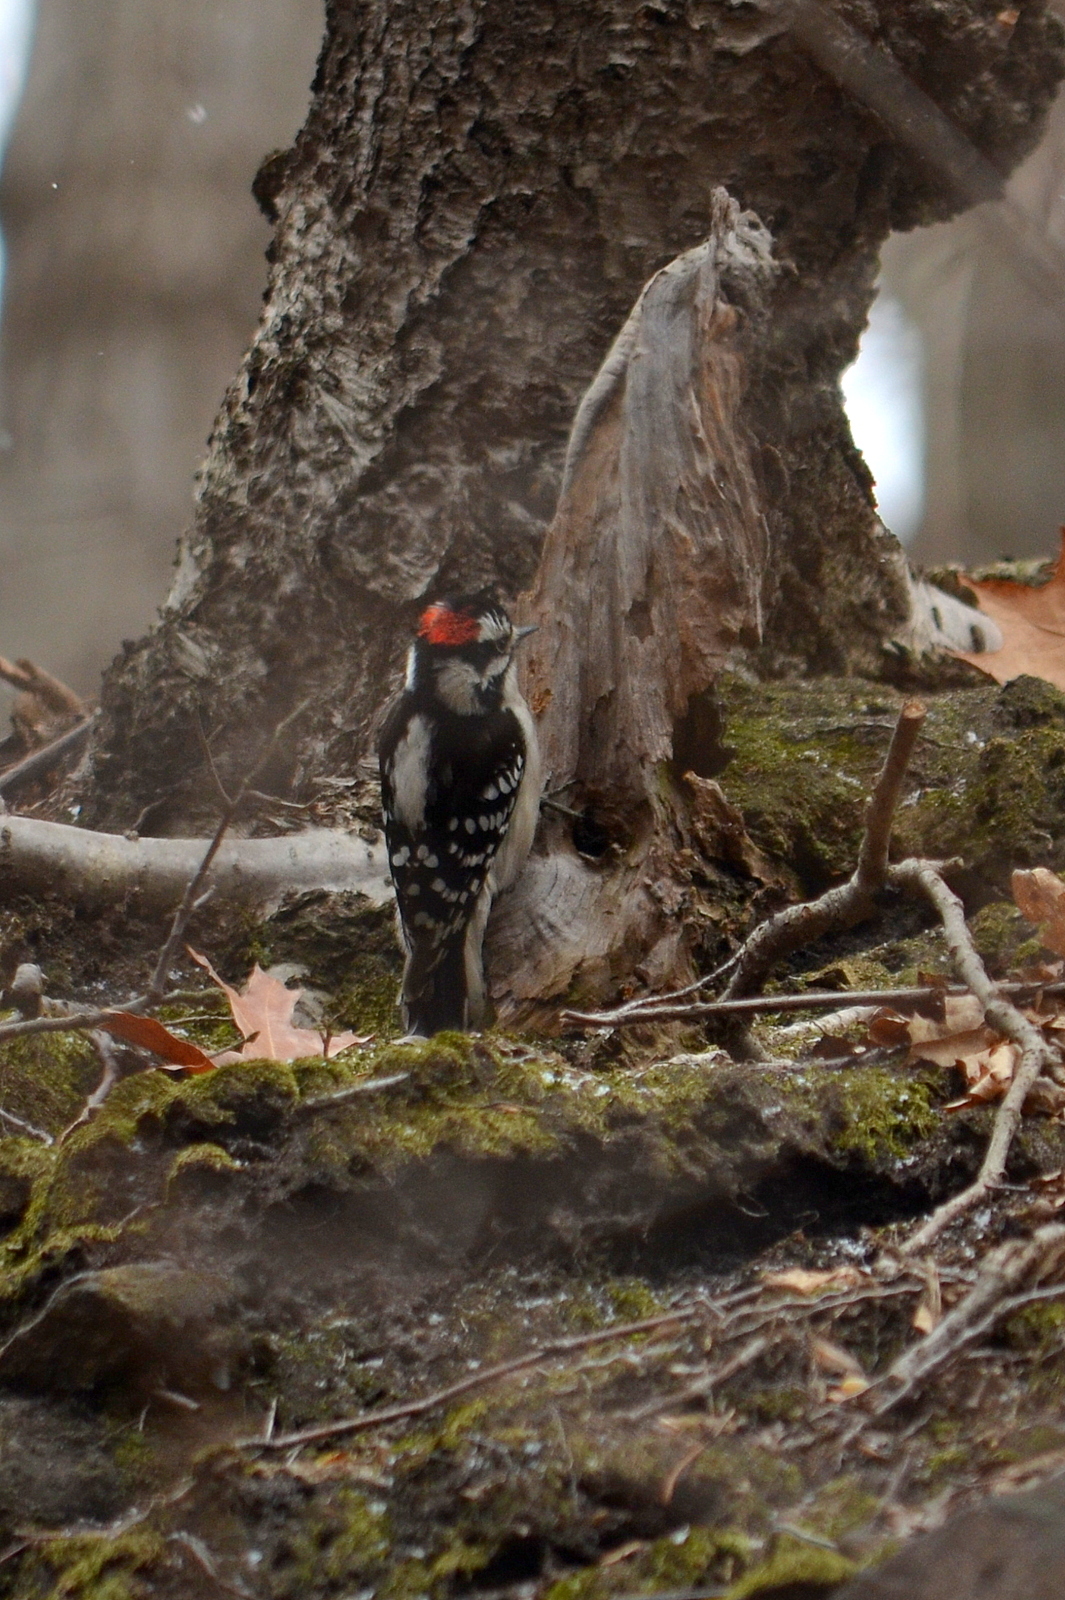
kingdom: Animalia
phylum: Chordata
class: Aves
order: Piciformes
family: Picidae
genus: Dryobates
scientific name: Dryobates pubescens
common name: Downy woodpecker
